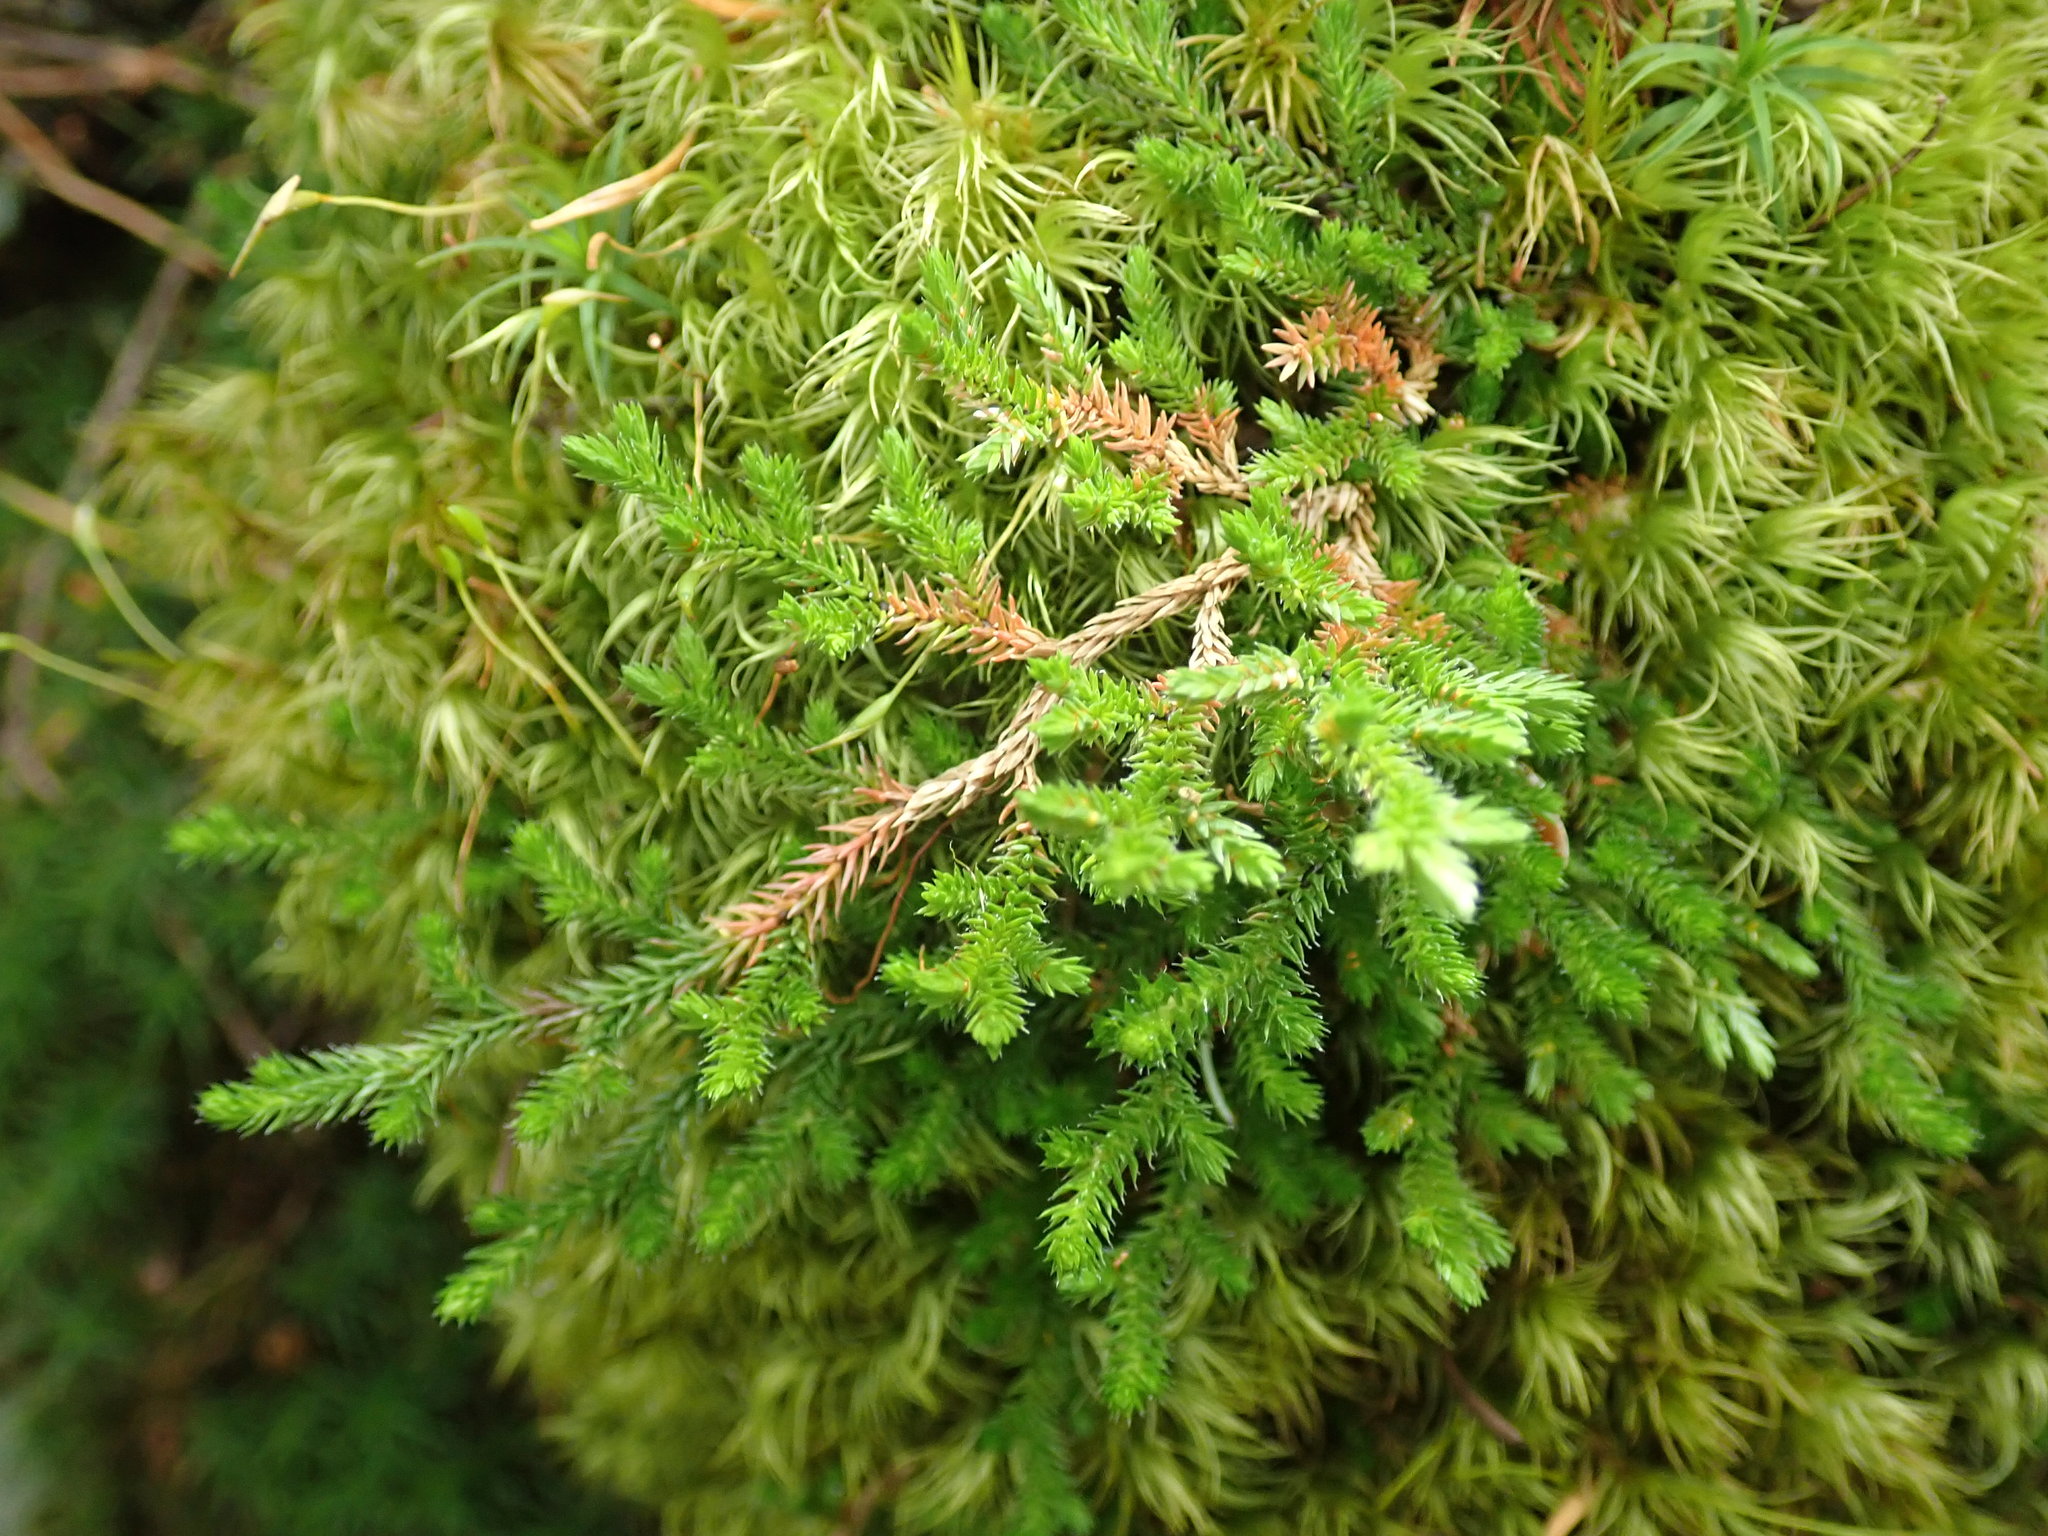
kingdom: Plantae
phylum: Tracheophyta
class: Lycopodiopsida
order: Selaginellales
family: Selaginellaceae
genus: Selaginella
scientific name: Selaginella wallacei
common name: Wallace's selaginella
